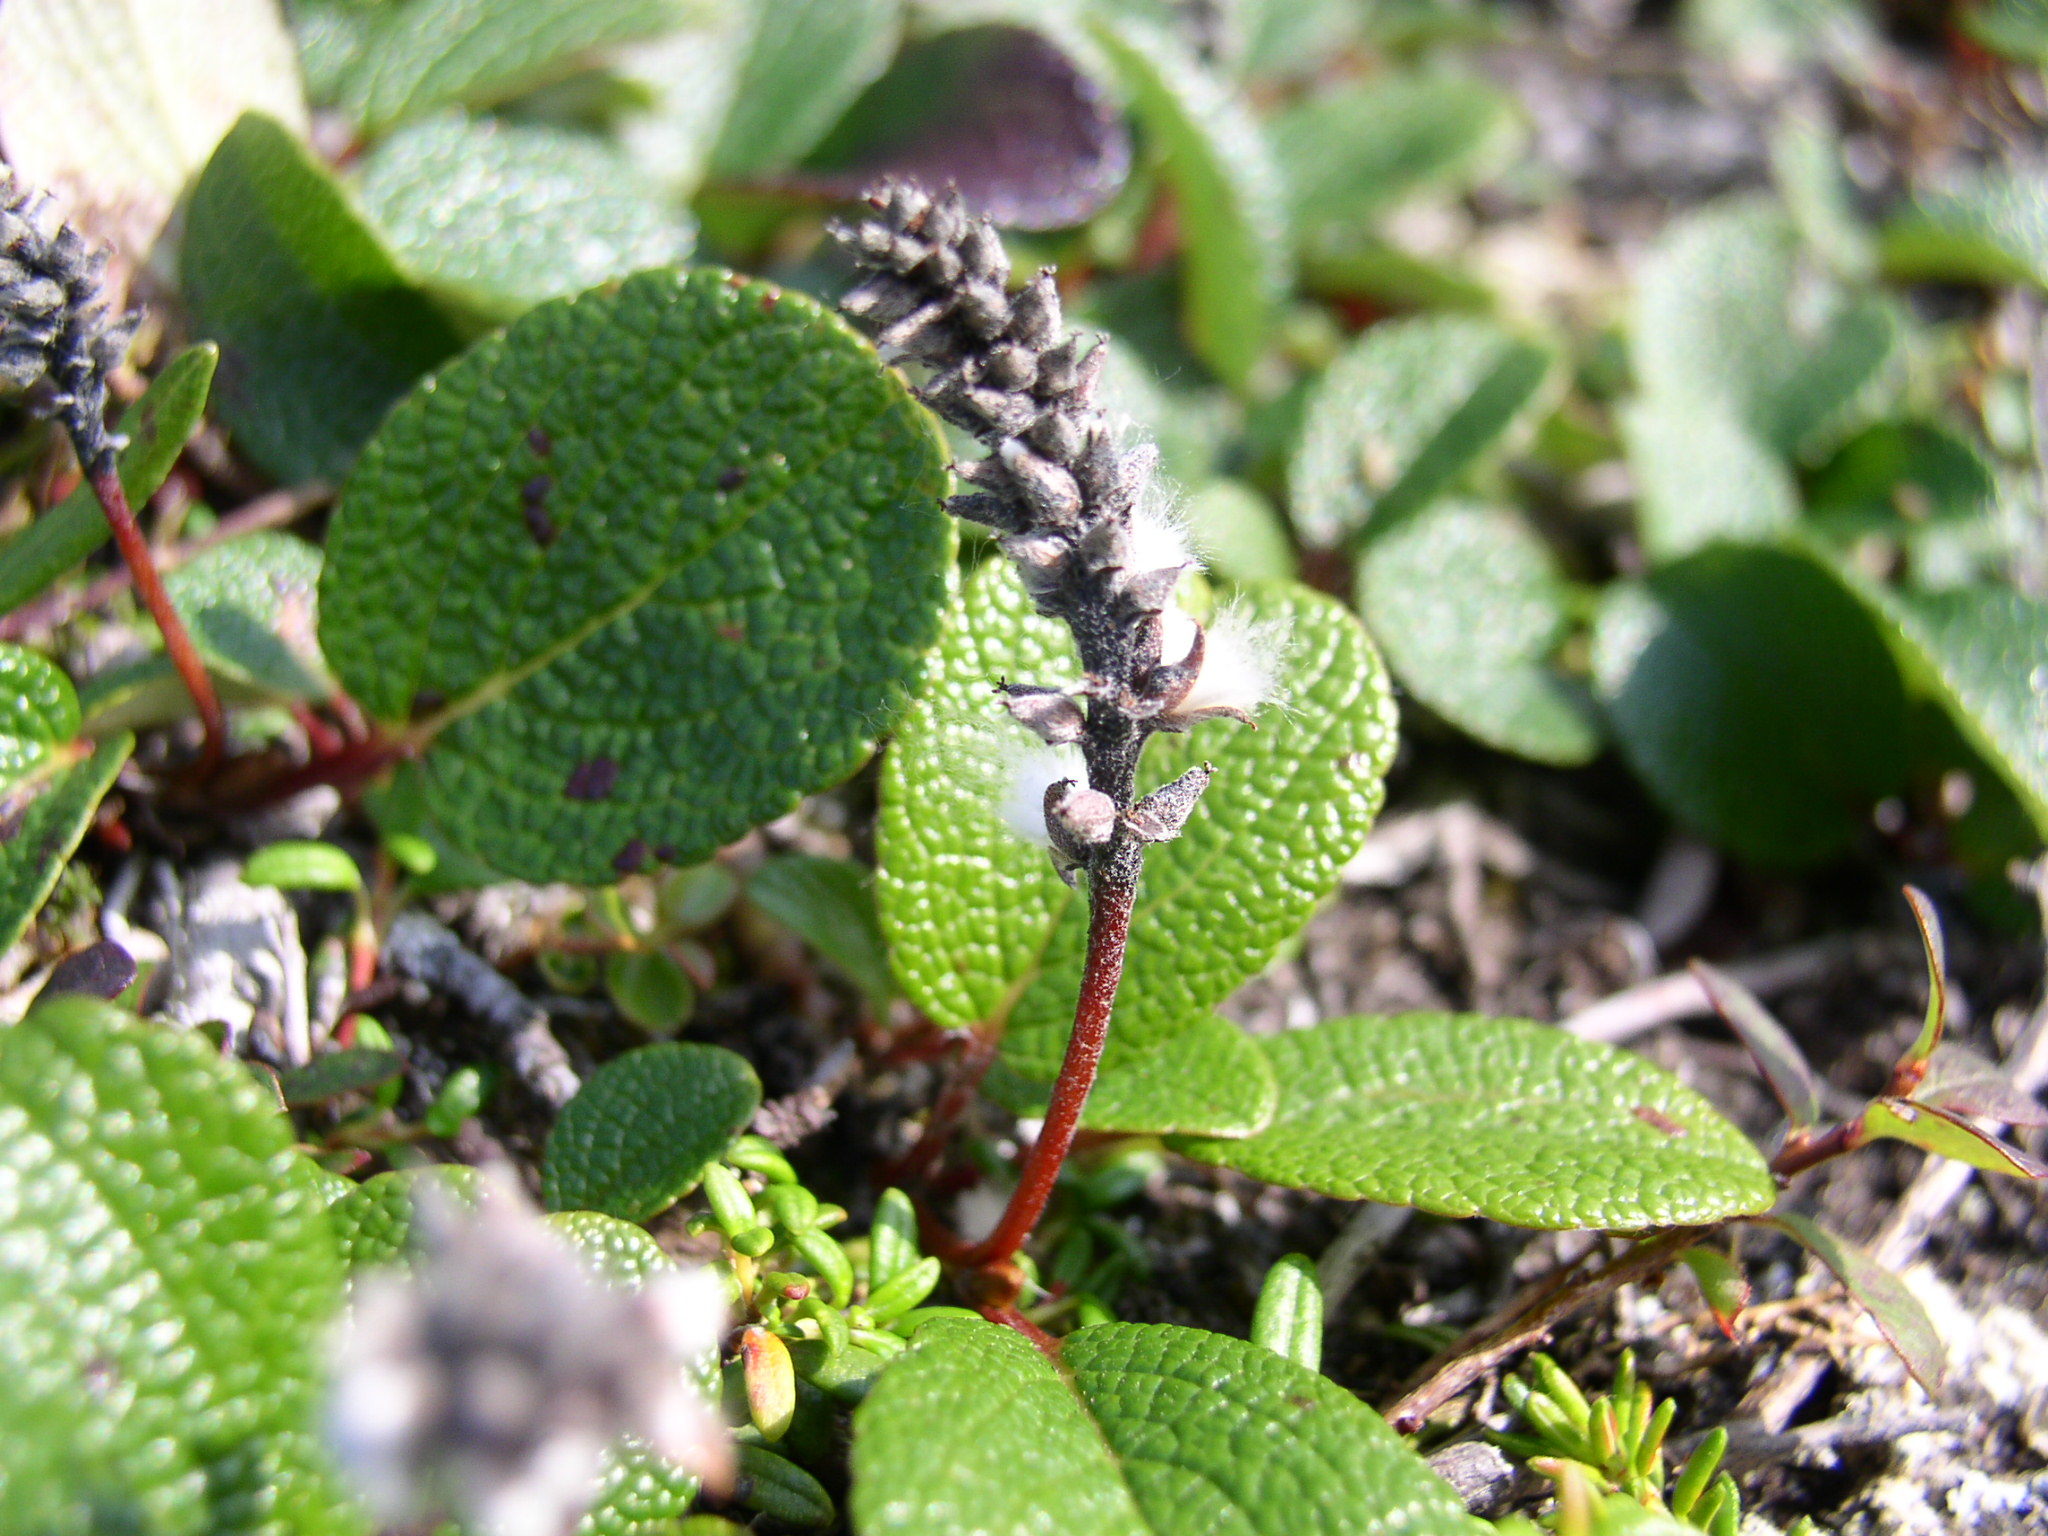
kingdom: Plantae
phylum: Tracheophyta
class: Magnoliopsida
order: Malpighiales
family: Salicaceae
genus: Salix
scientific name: Salix reticulata
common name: Net-leaved willow
